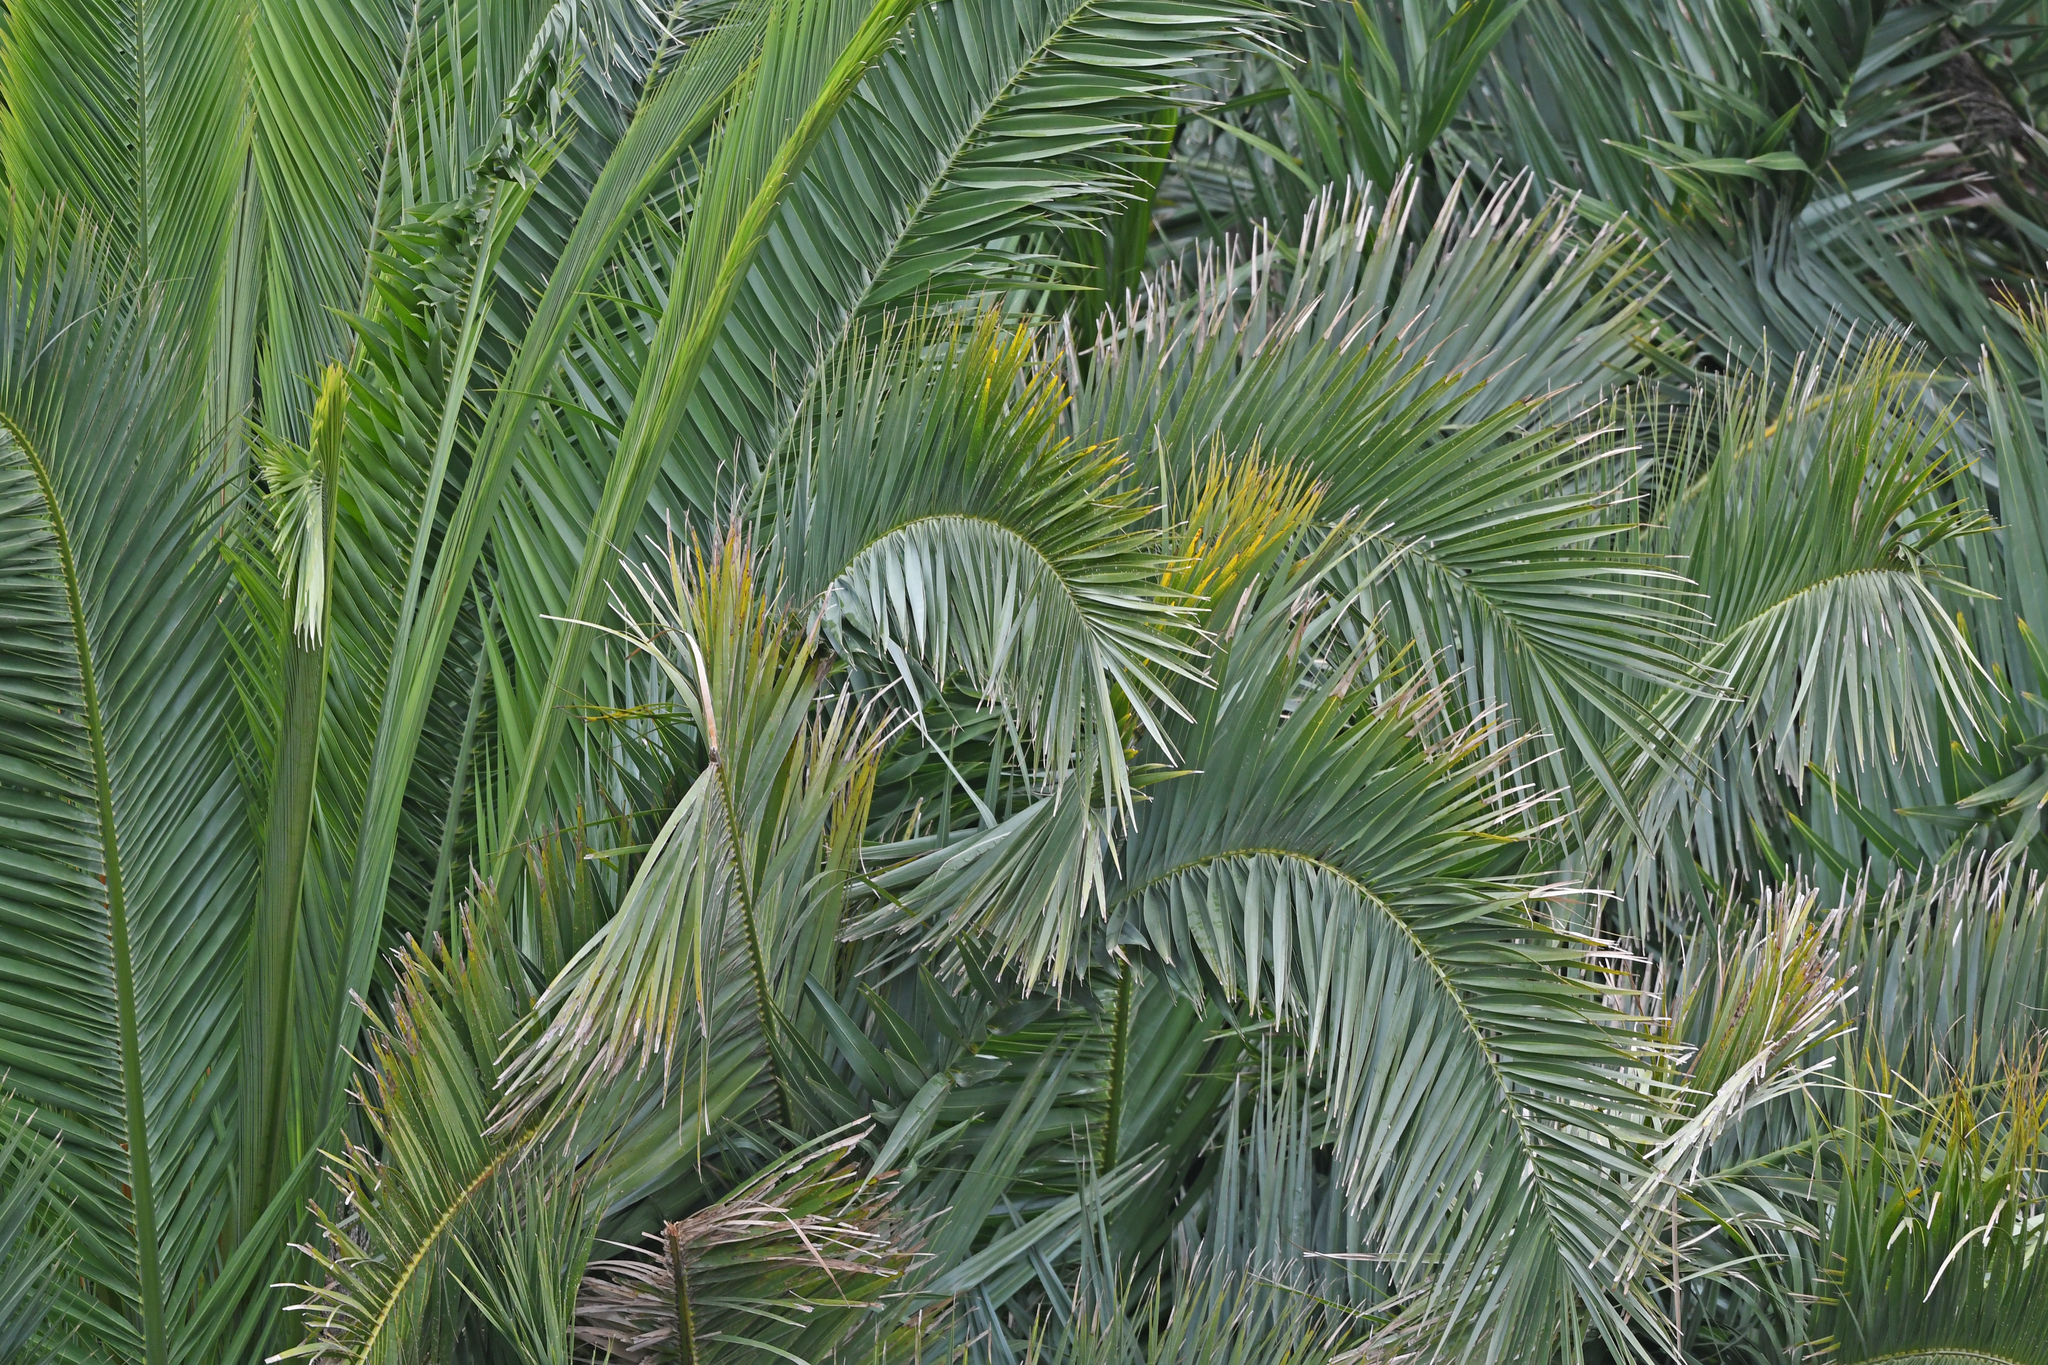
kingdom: Plantae
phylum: Tracheophyta
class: Liliopsida
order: Arecales
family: Arecaceae
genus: Phoenix
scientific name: Phoenix canariensis
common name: Canary island date palm
